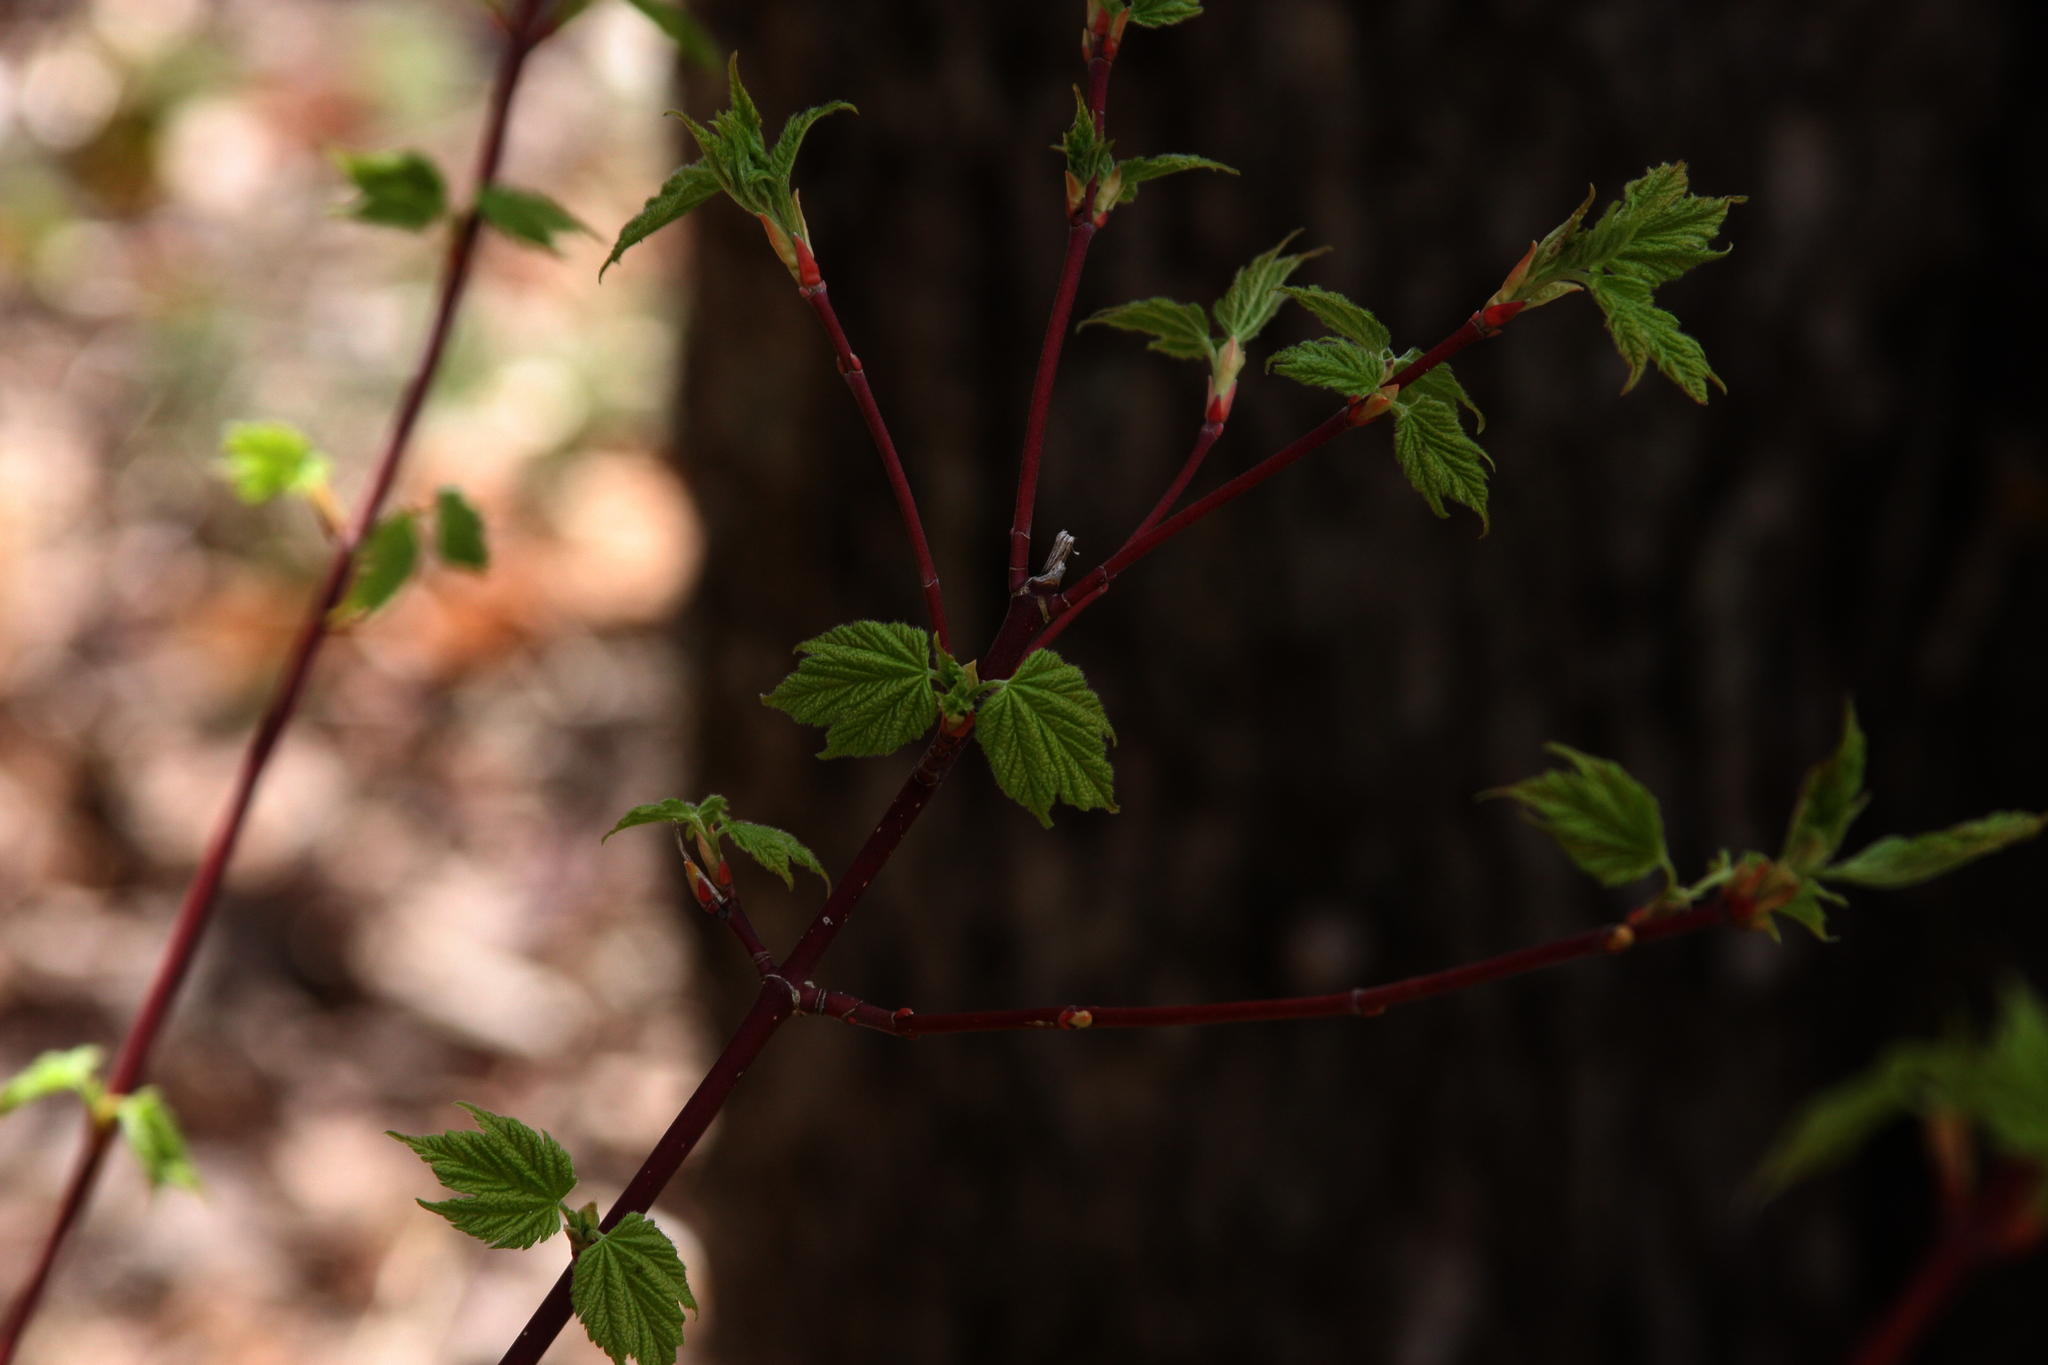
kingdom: Plantae
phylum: Tracheophyta
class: Magnoliopsida
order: Sapindales
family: Sapindaceae
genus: Acer
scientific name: Acer pensylvanicum
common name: Moosewood
